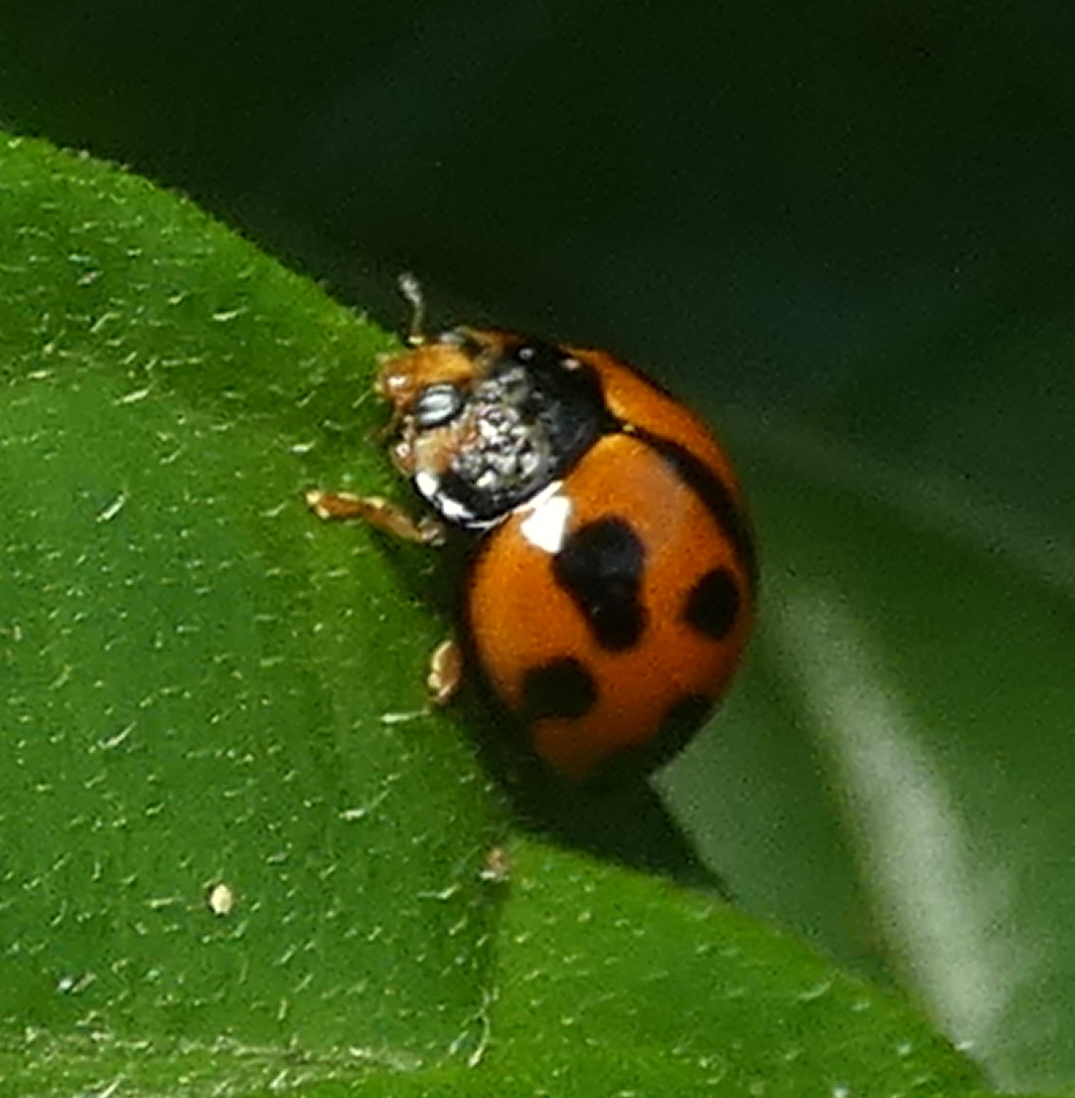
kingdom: Animalia
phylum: Arthropoda
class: Insecta
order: Coleoptera
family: Coccinellidae
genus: Coelophora
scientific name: Coelophora inaequalis
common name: Common australian lady beetle
